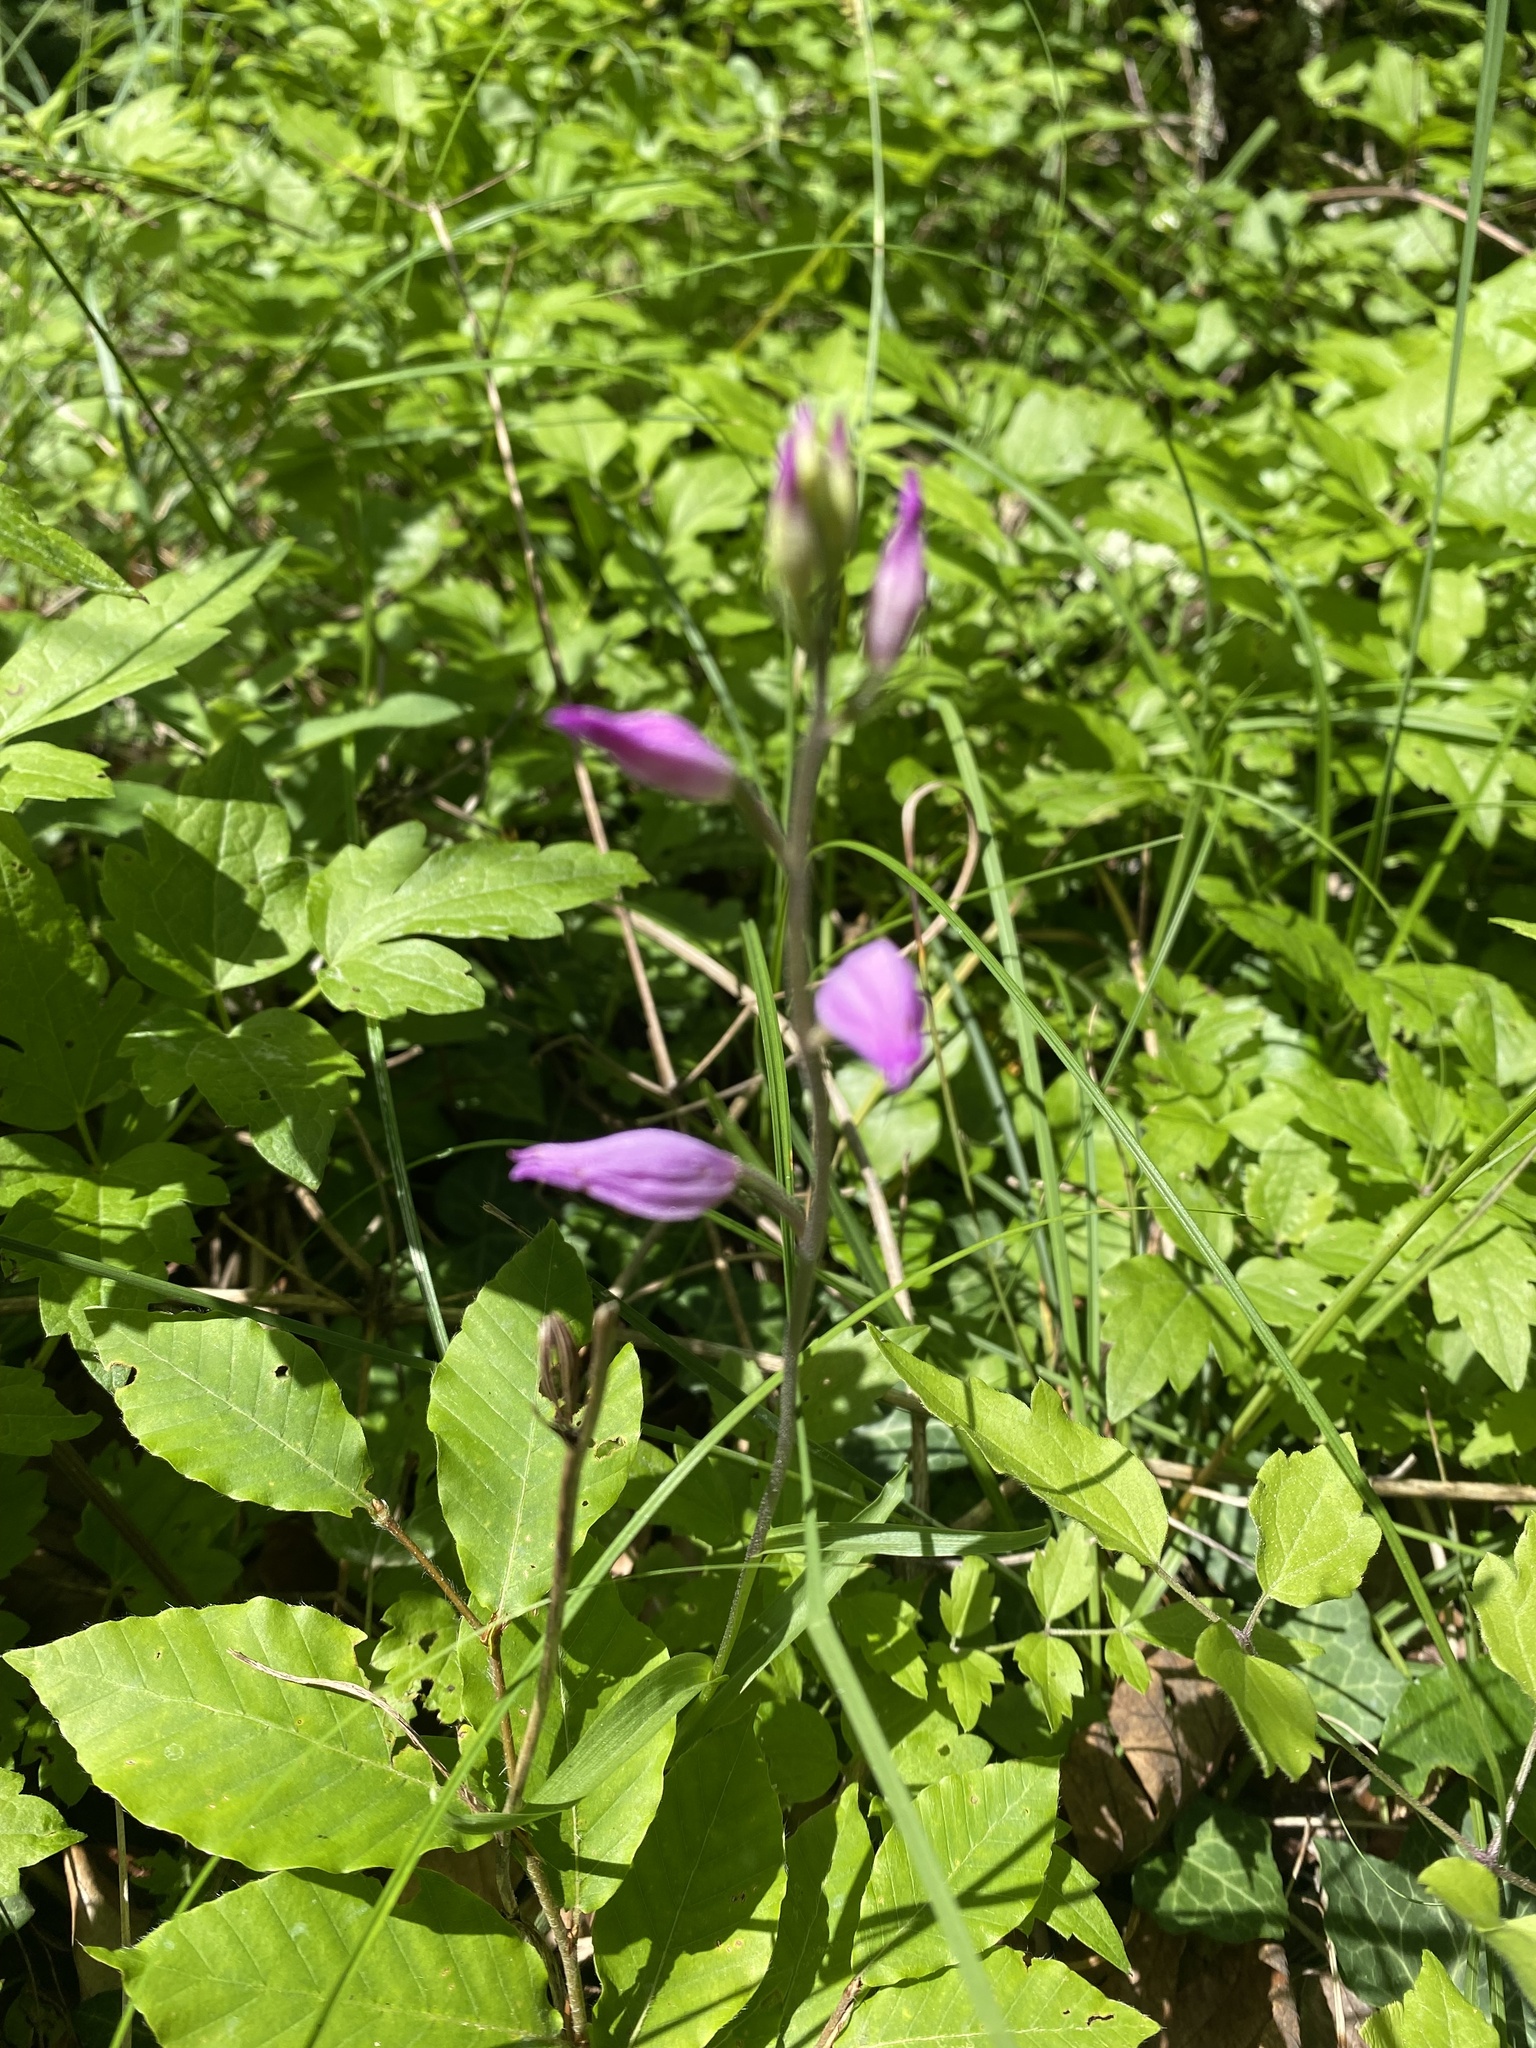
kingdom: Plantae
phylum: Tracheophyta
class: Liliopsida
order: Asparagales
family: Orchidaceae
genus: Cephalanthera
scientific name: Cephalanthera rubra
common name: Red helleborine
